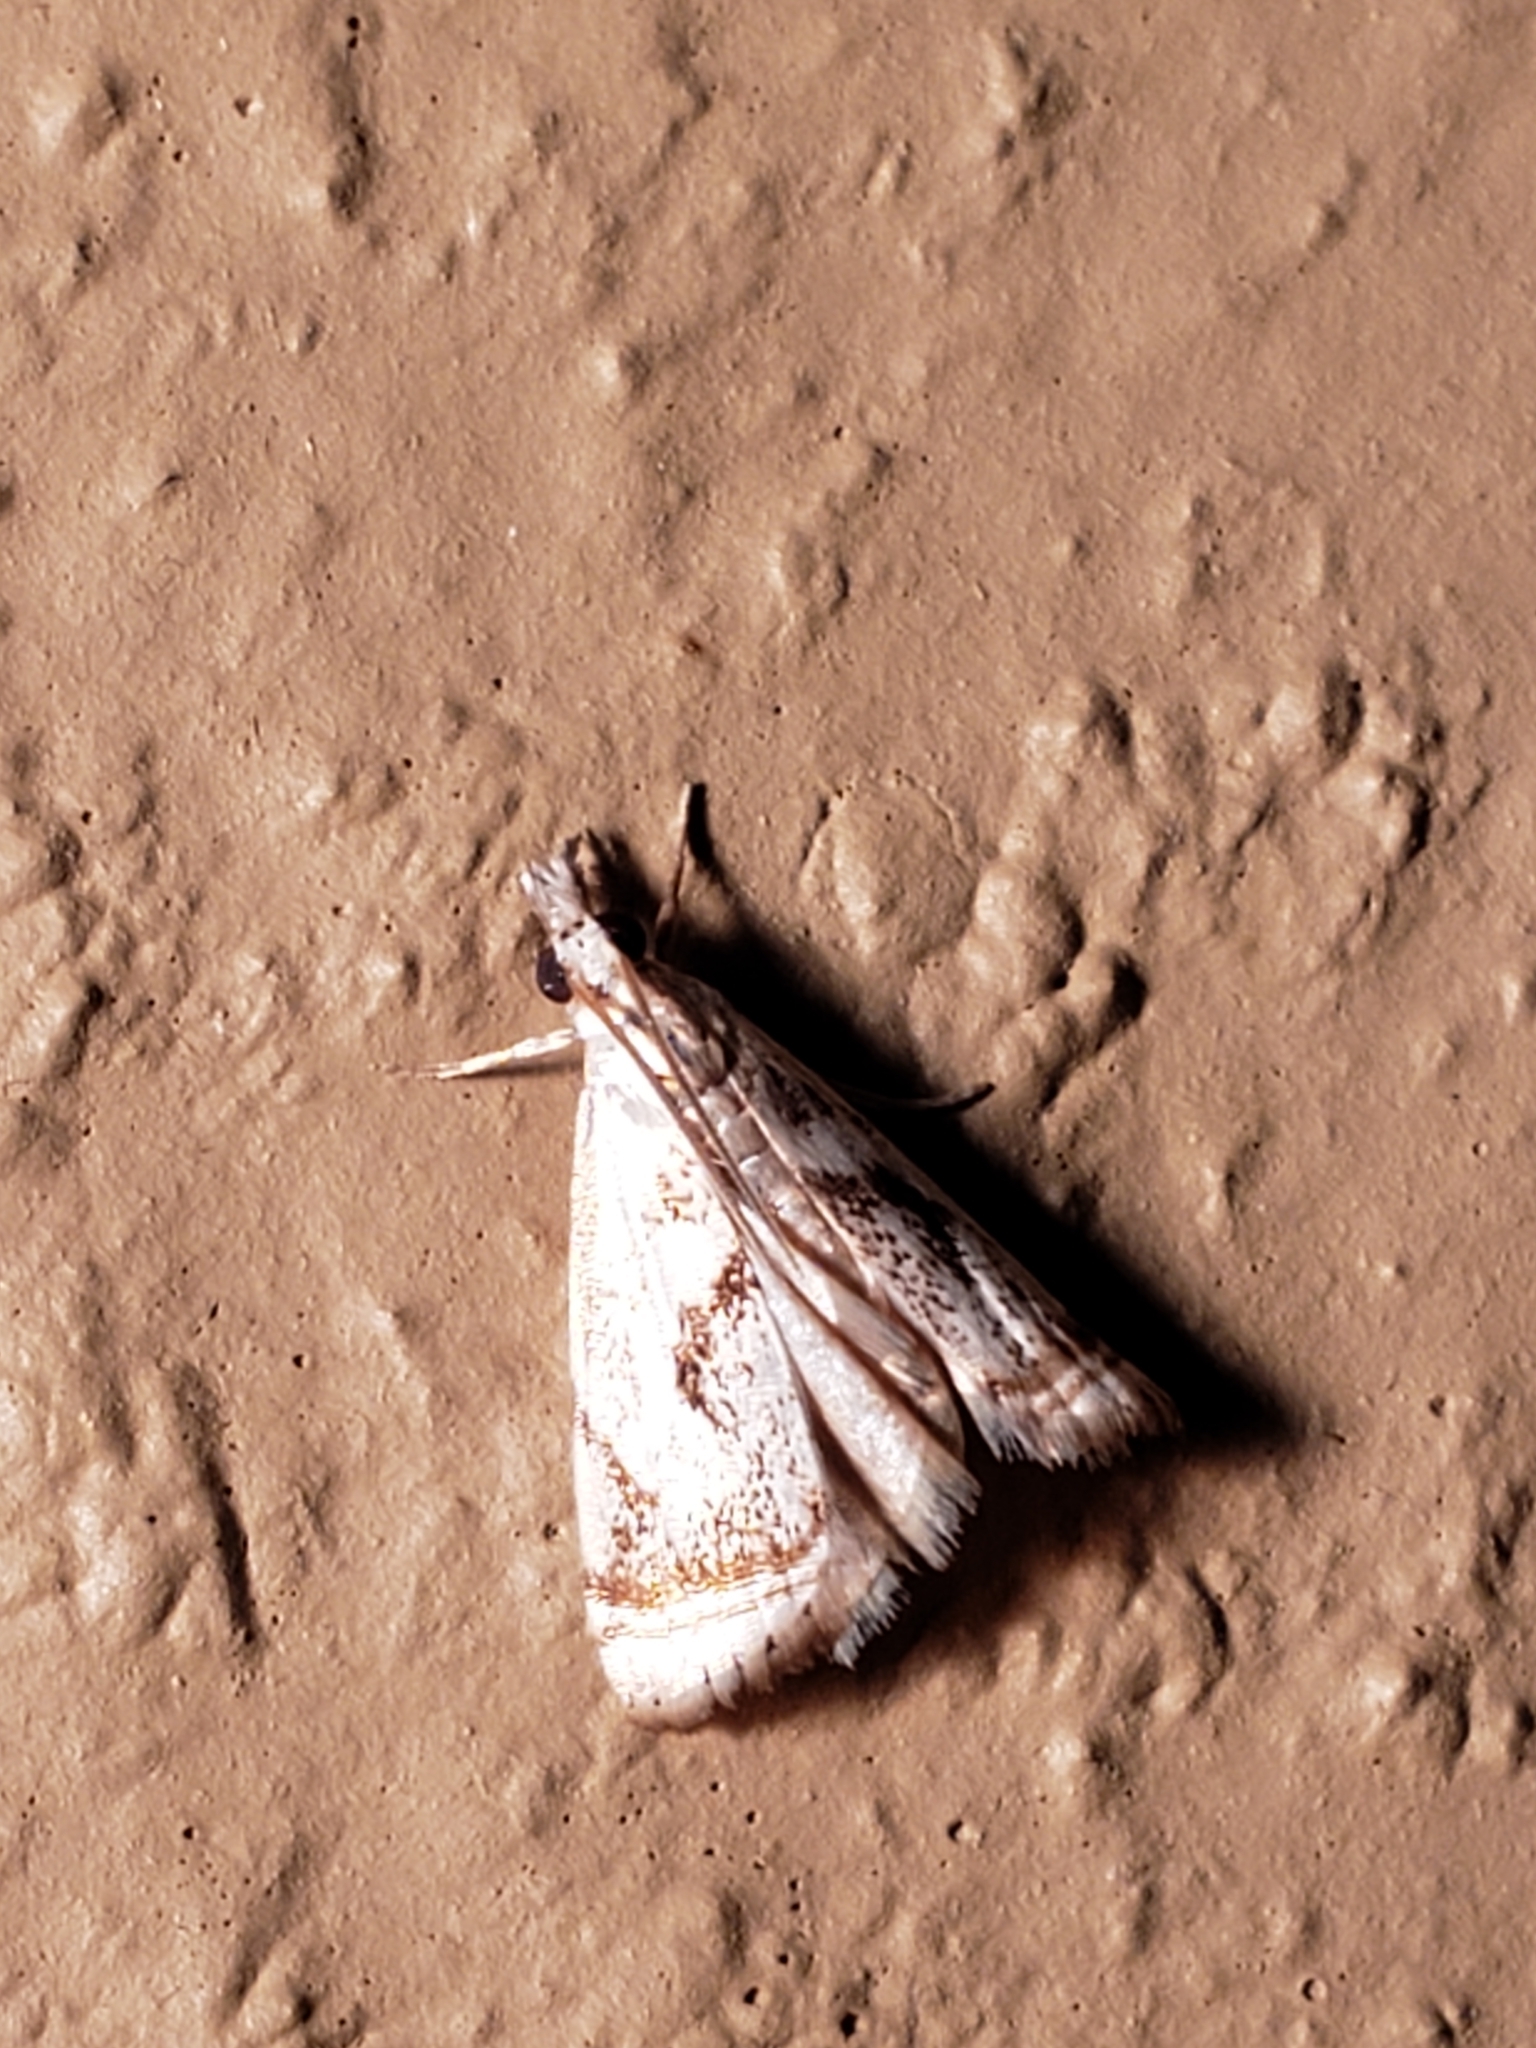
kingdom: Animalia
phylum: Arthropoda
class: Insecta
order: Lepidoptera
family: Crambidae
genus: Microcrambus
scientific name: Microcrambus elegans
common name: Elegant grass-veneer
